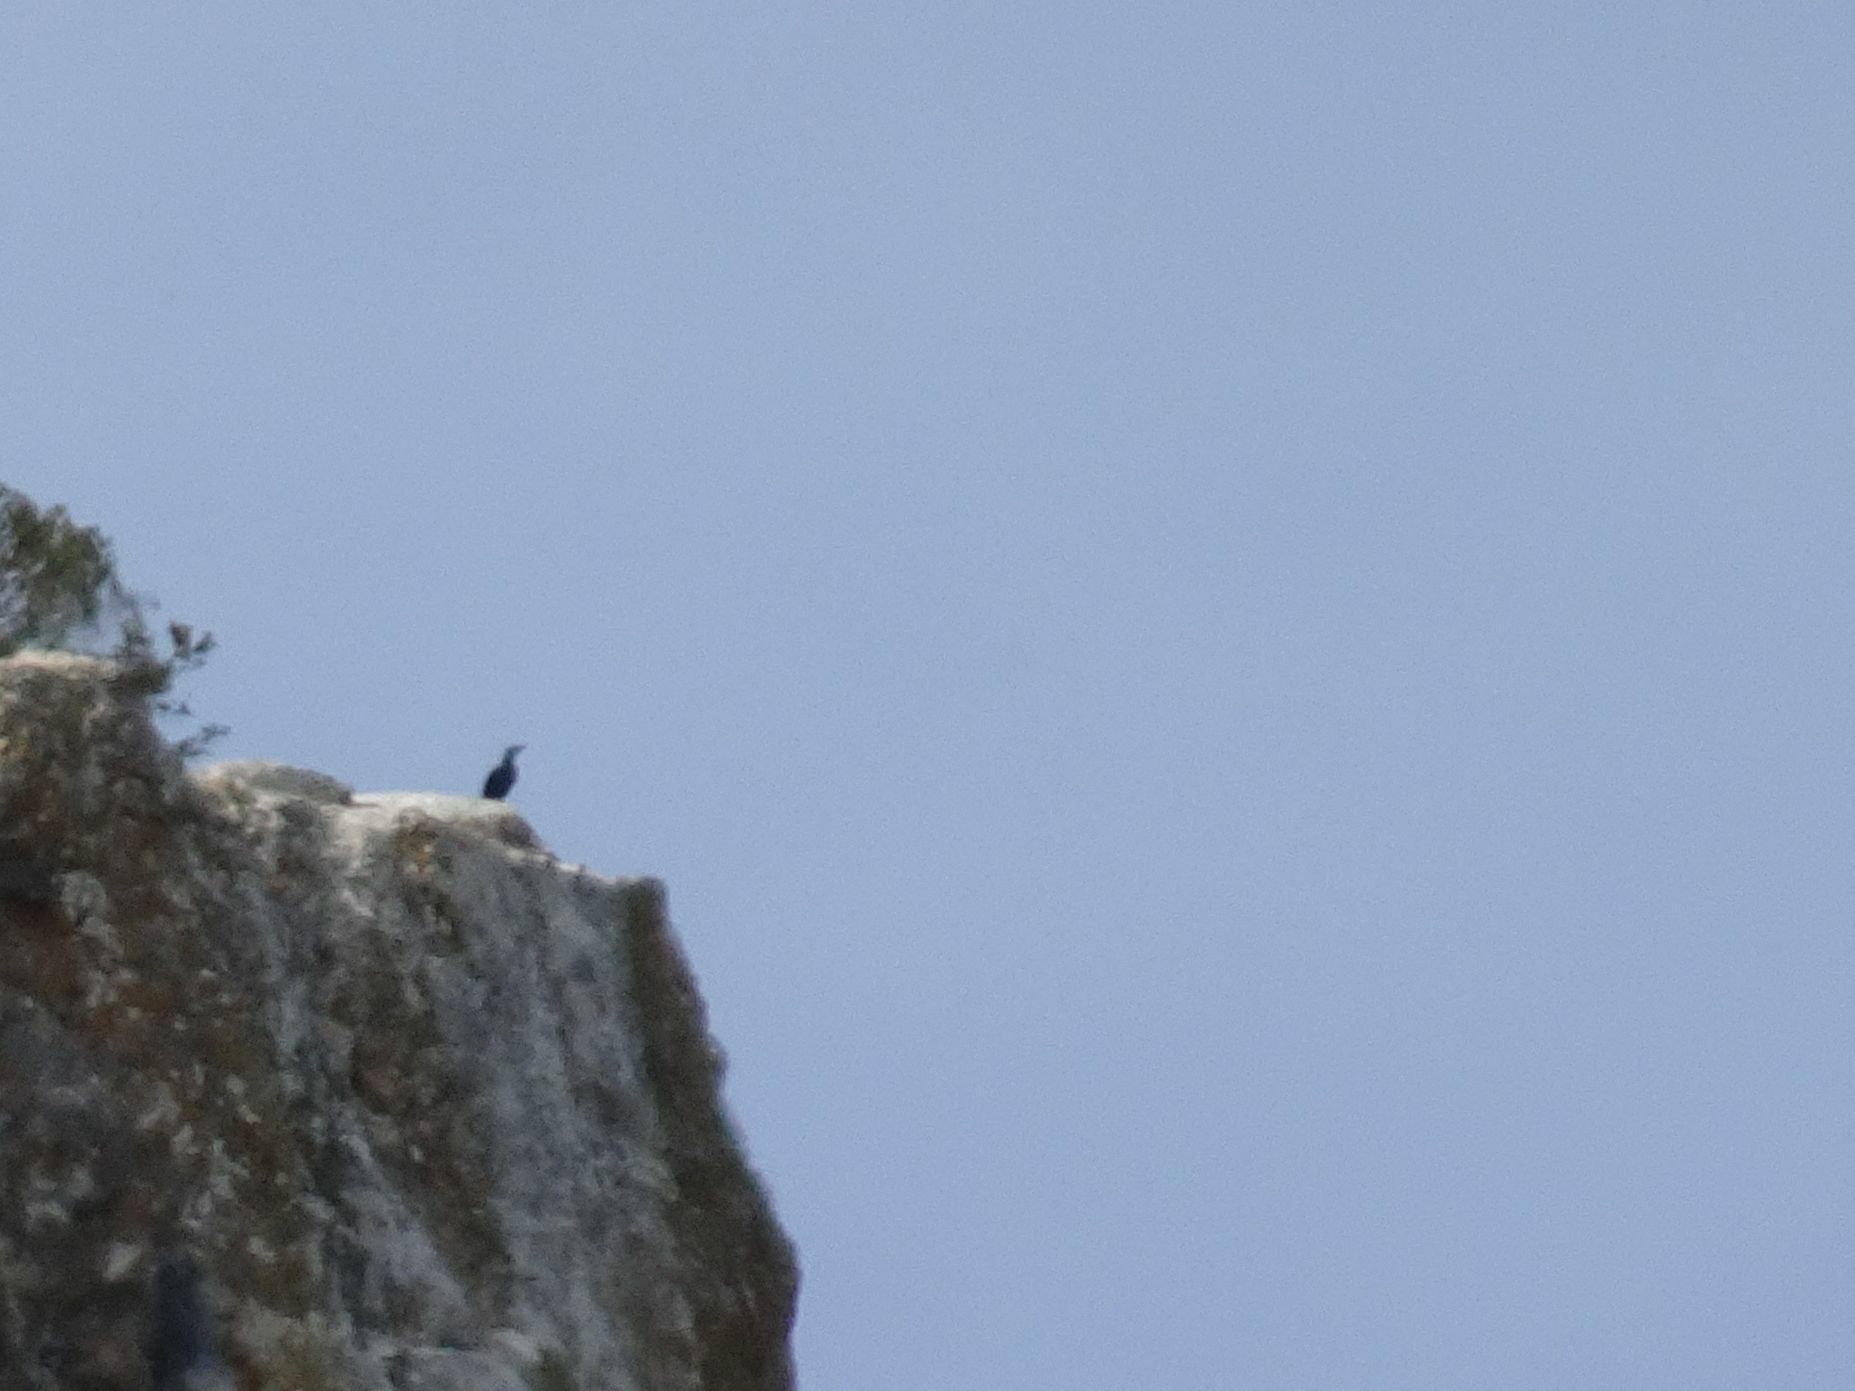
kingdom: Animalia
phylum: Chordata
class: Aves
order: Passeriformes
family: Sturnidae
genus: Onychognathus
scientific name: Onychognathus morio
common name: Red-winged starling
